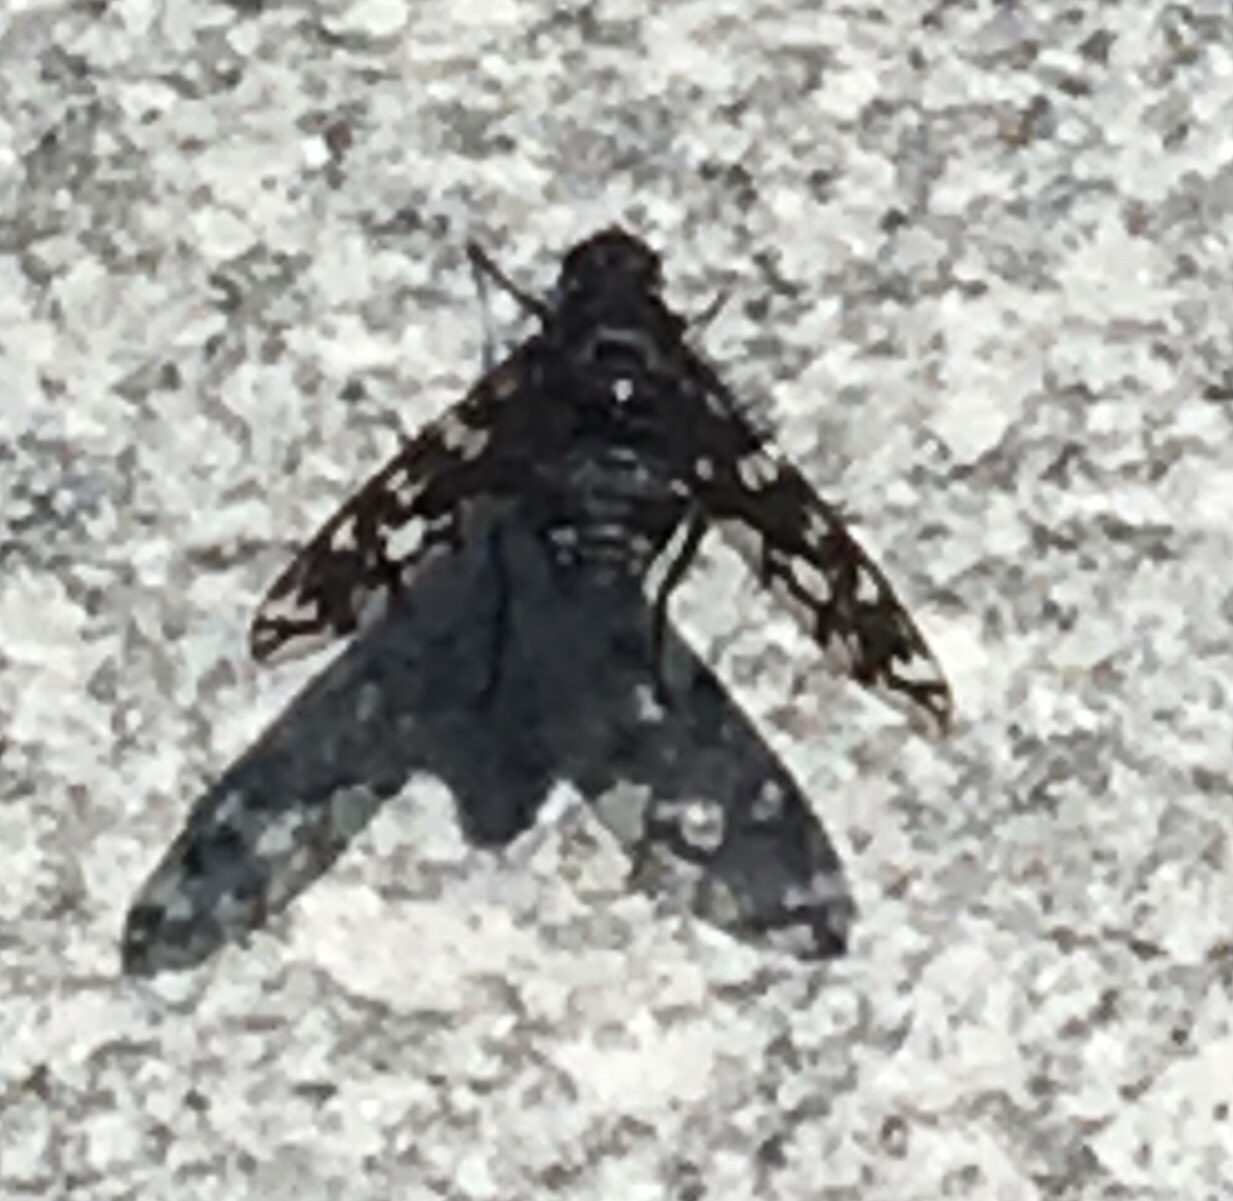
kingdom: Animalia
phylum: Arthropoda
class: Insecta
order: Diptera
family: Bombyliidae
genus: Xenox
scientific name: Xenox tigrinus
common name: Tiger bee fly
